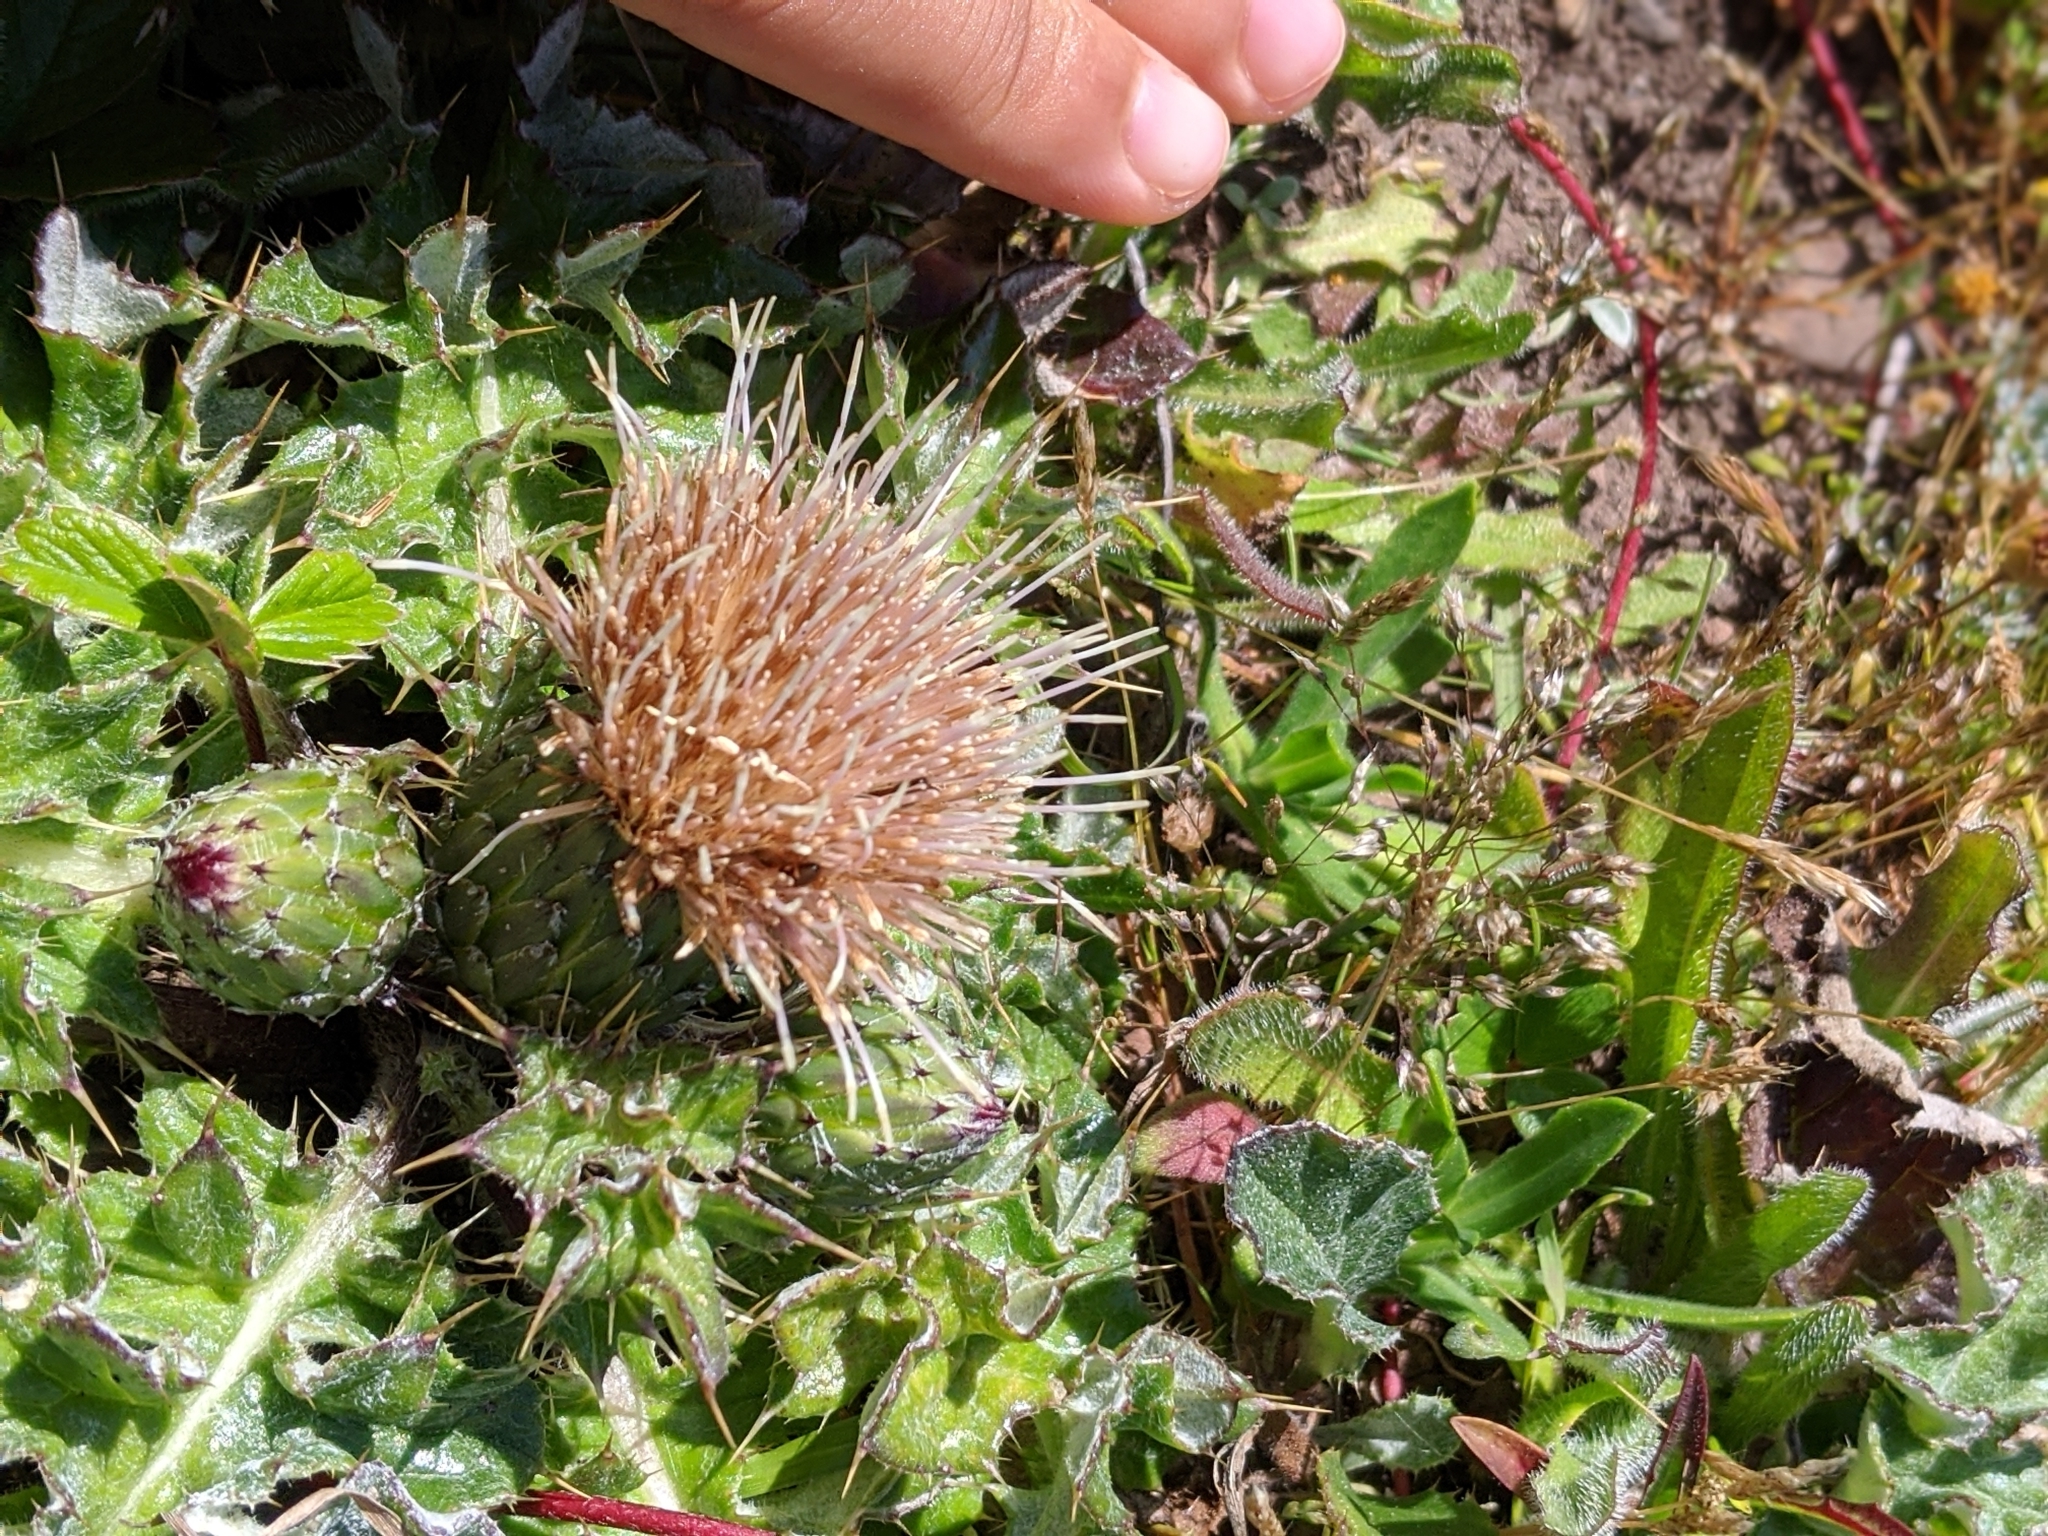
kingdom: Plantae
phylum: Tracheophyta
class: Magnoliopsida
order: Asterales
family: Asteraceae
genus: Cirsium
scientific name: Cirsium quercetorum
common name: Alameda county thistle
